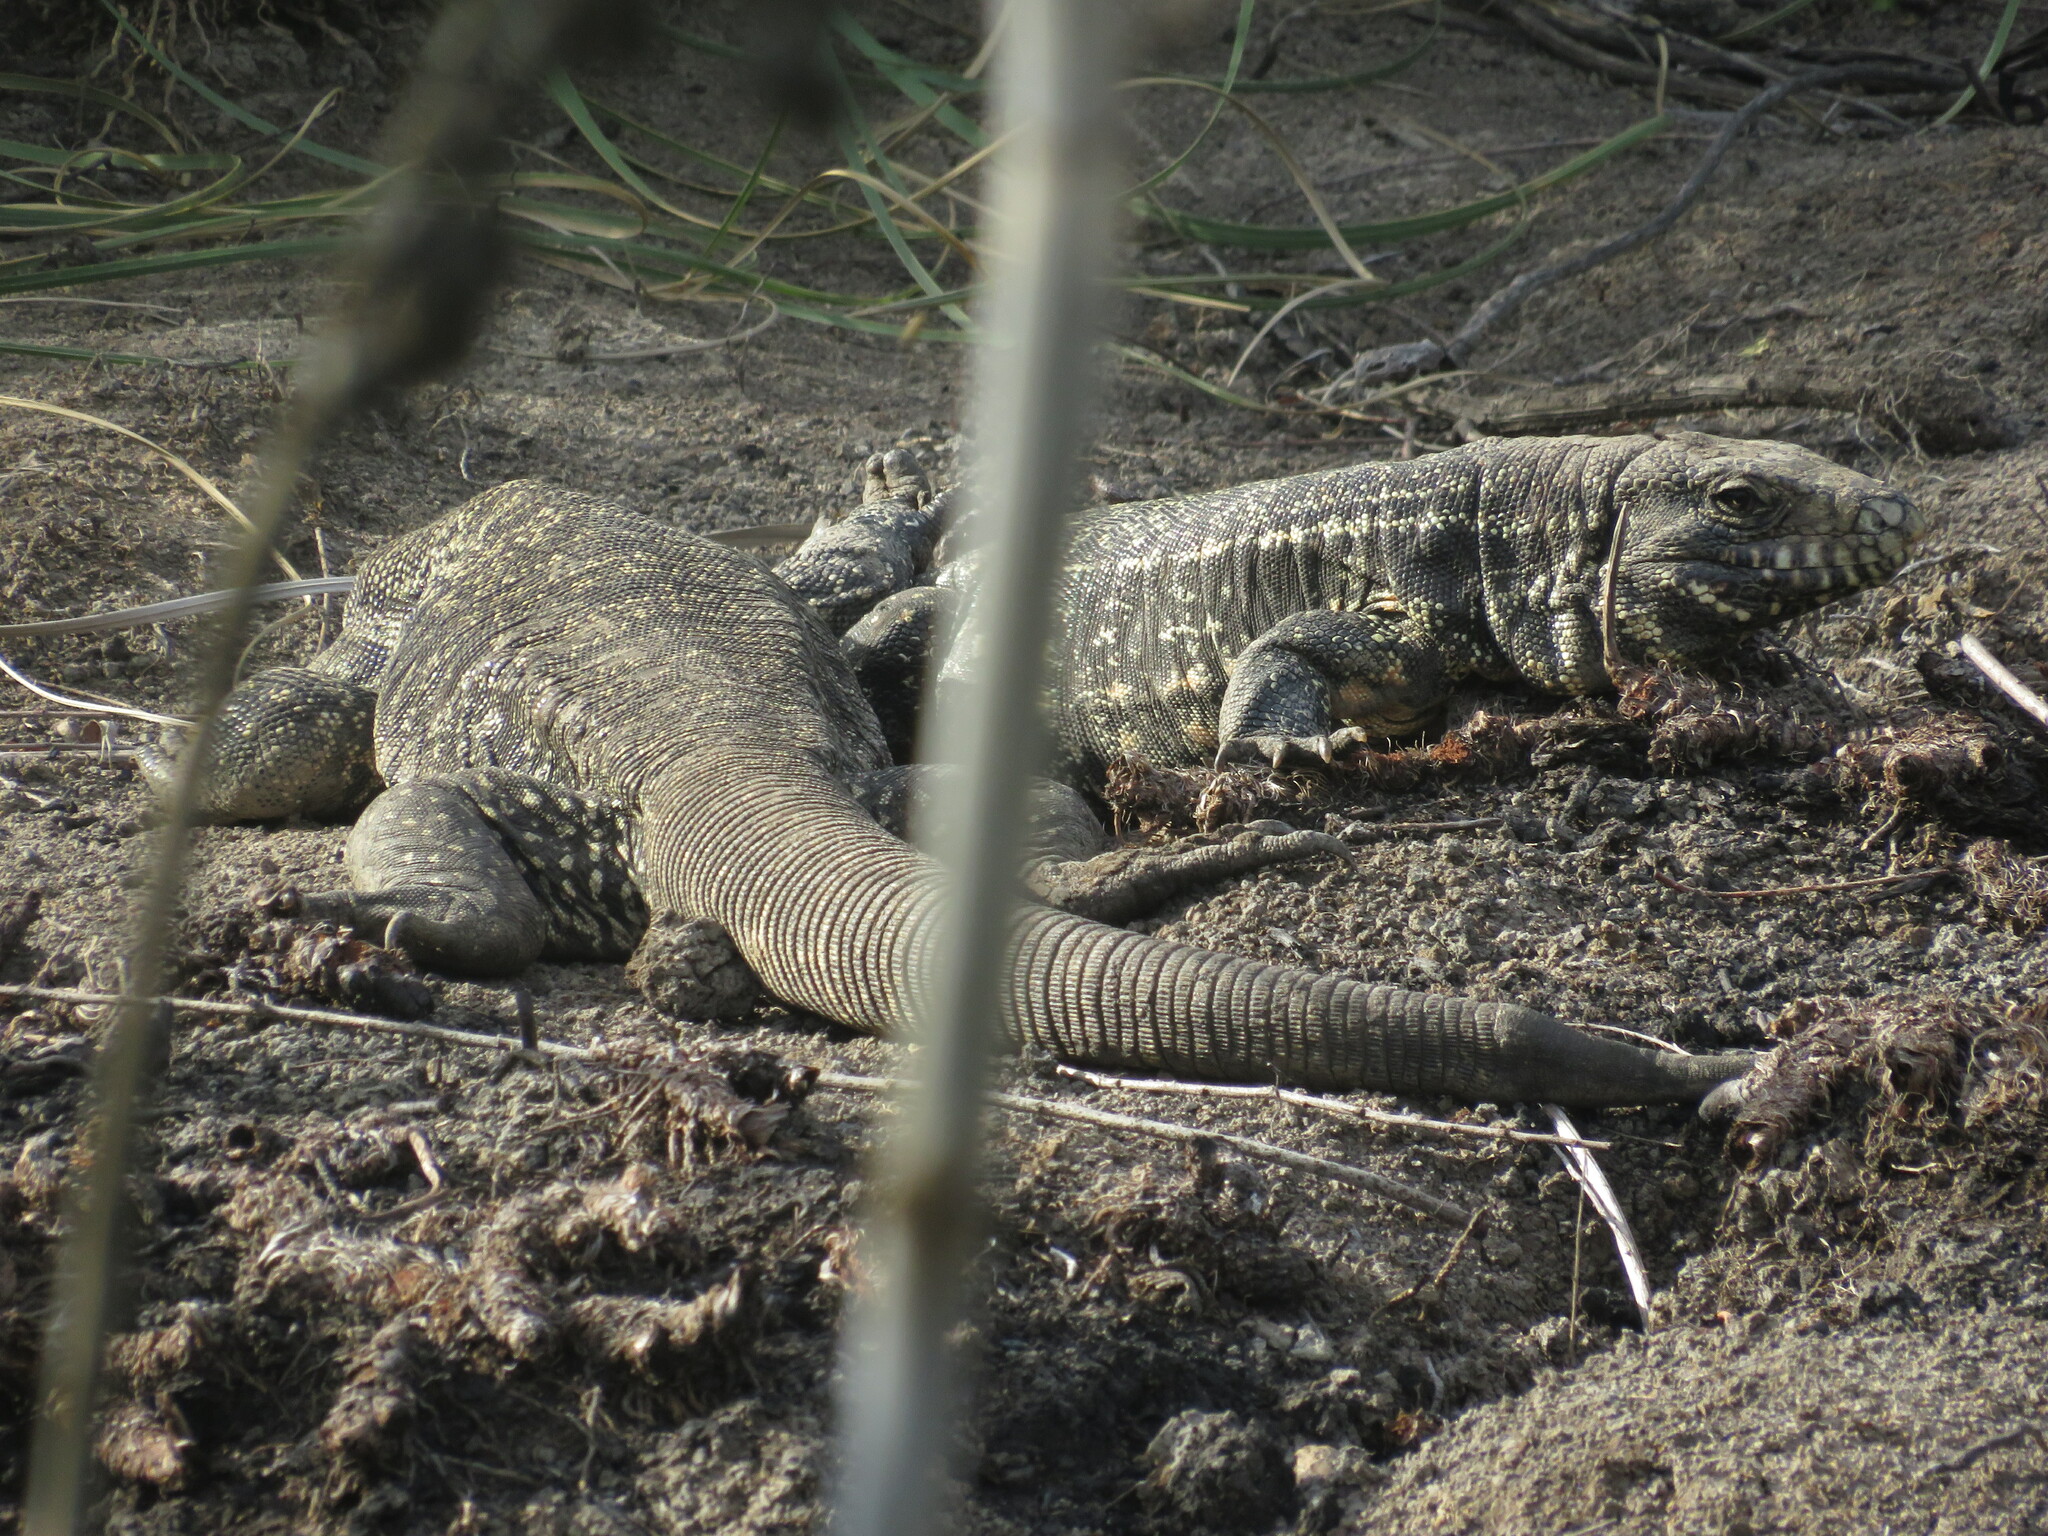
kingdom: Animalia
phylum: Chordata
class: Squamata
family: Teiidae
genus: Salvator
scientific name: Salvator merianae
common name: Argentine black and white tegu
